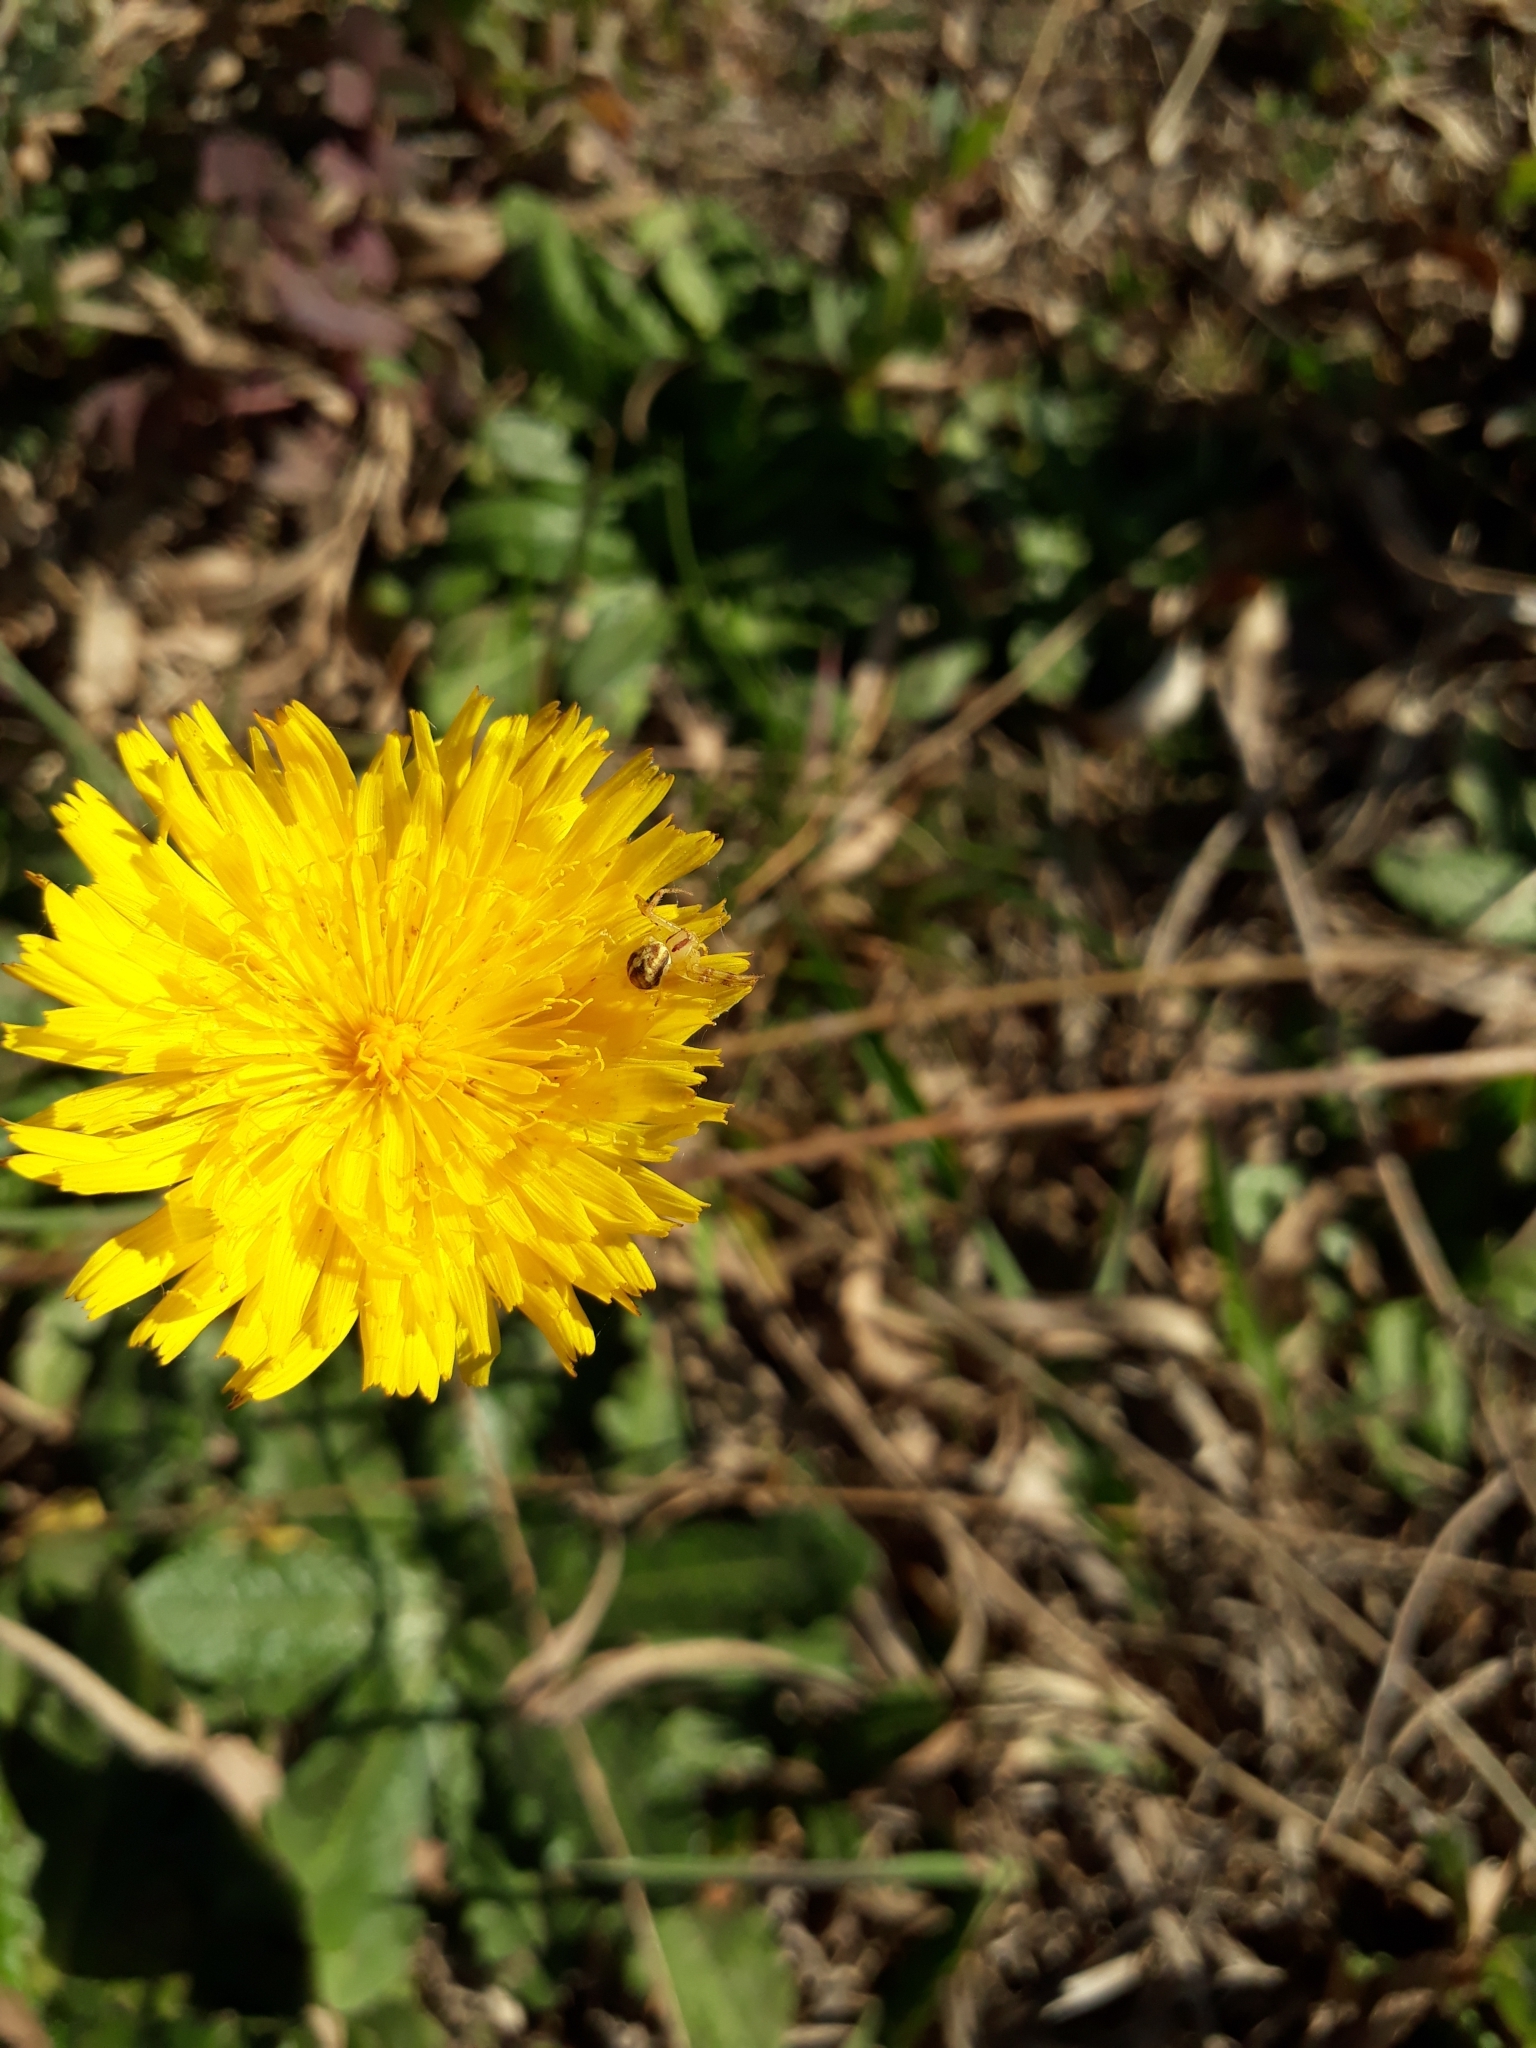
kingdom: Animalia
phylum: Arthropoda
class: Arachnida
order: Araneae
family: Thomisidae
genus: Misumenops
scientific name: Misumenops
